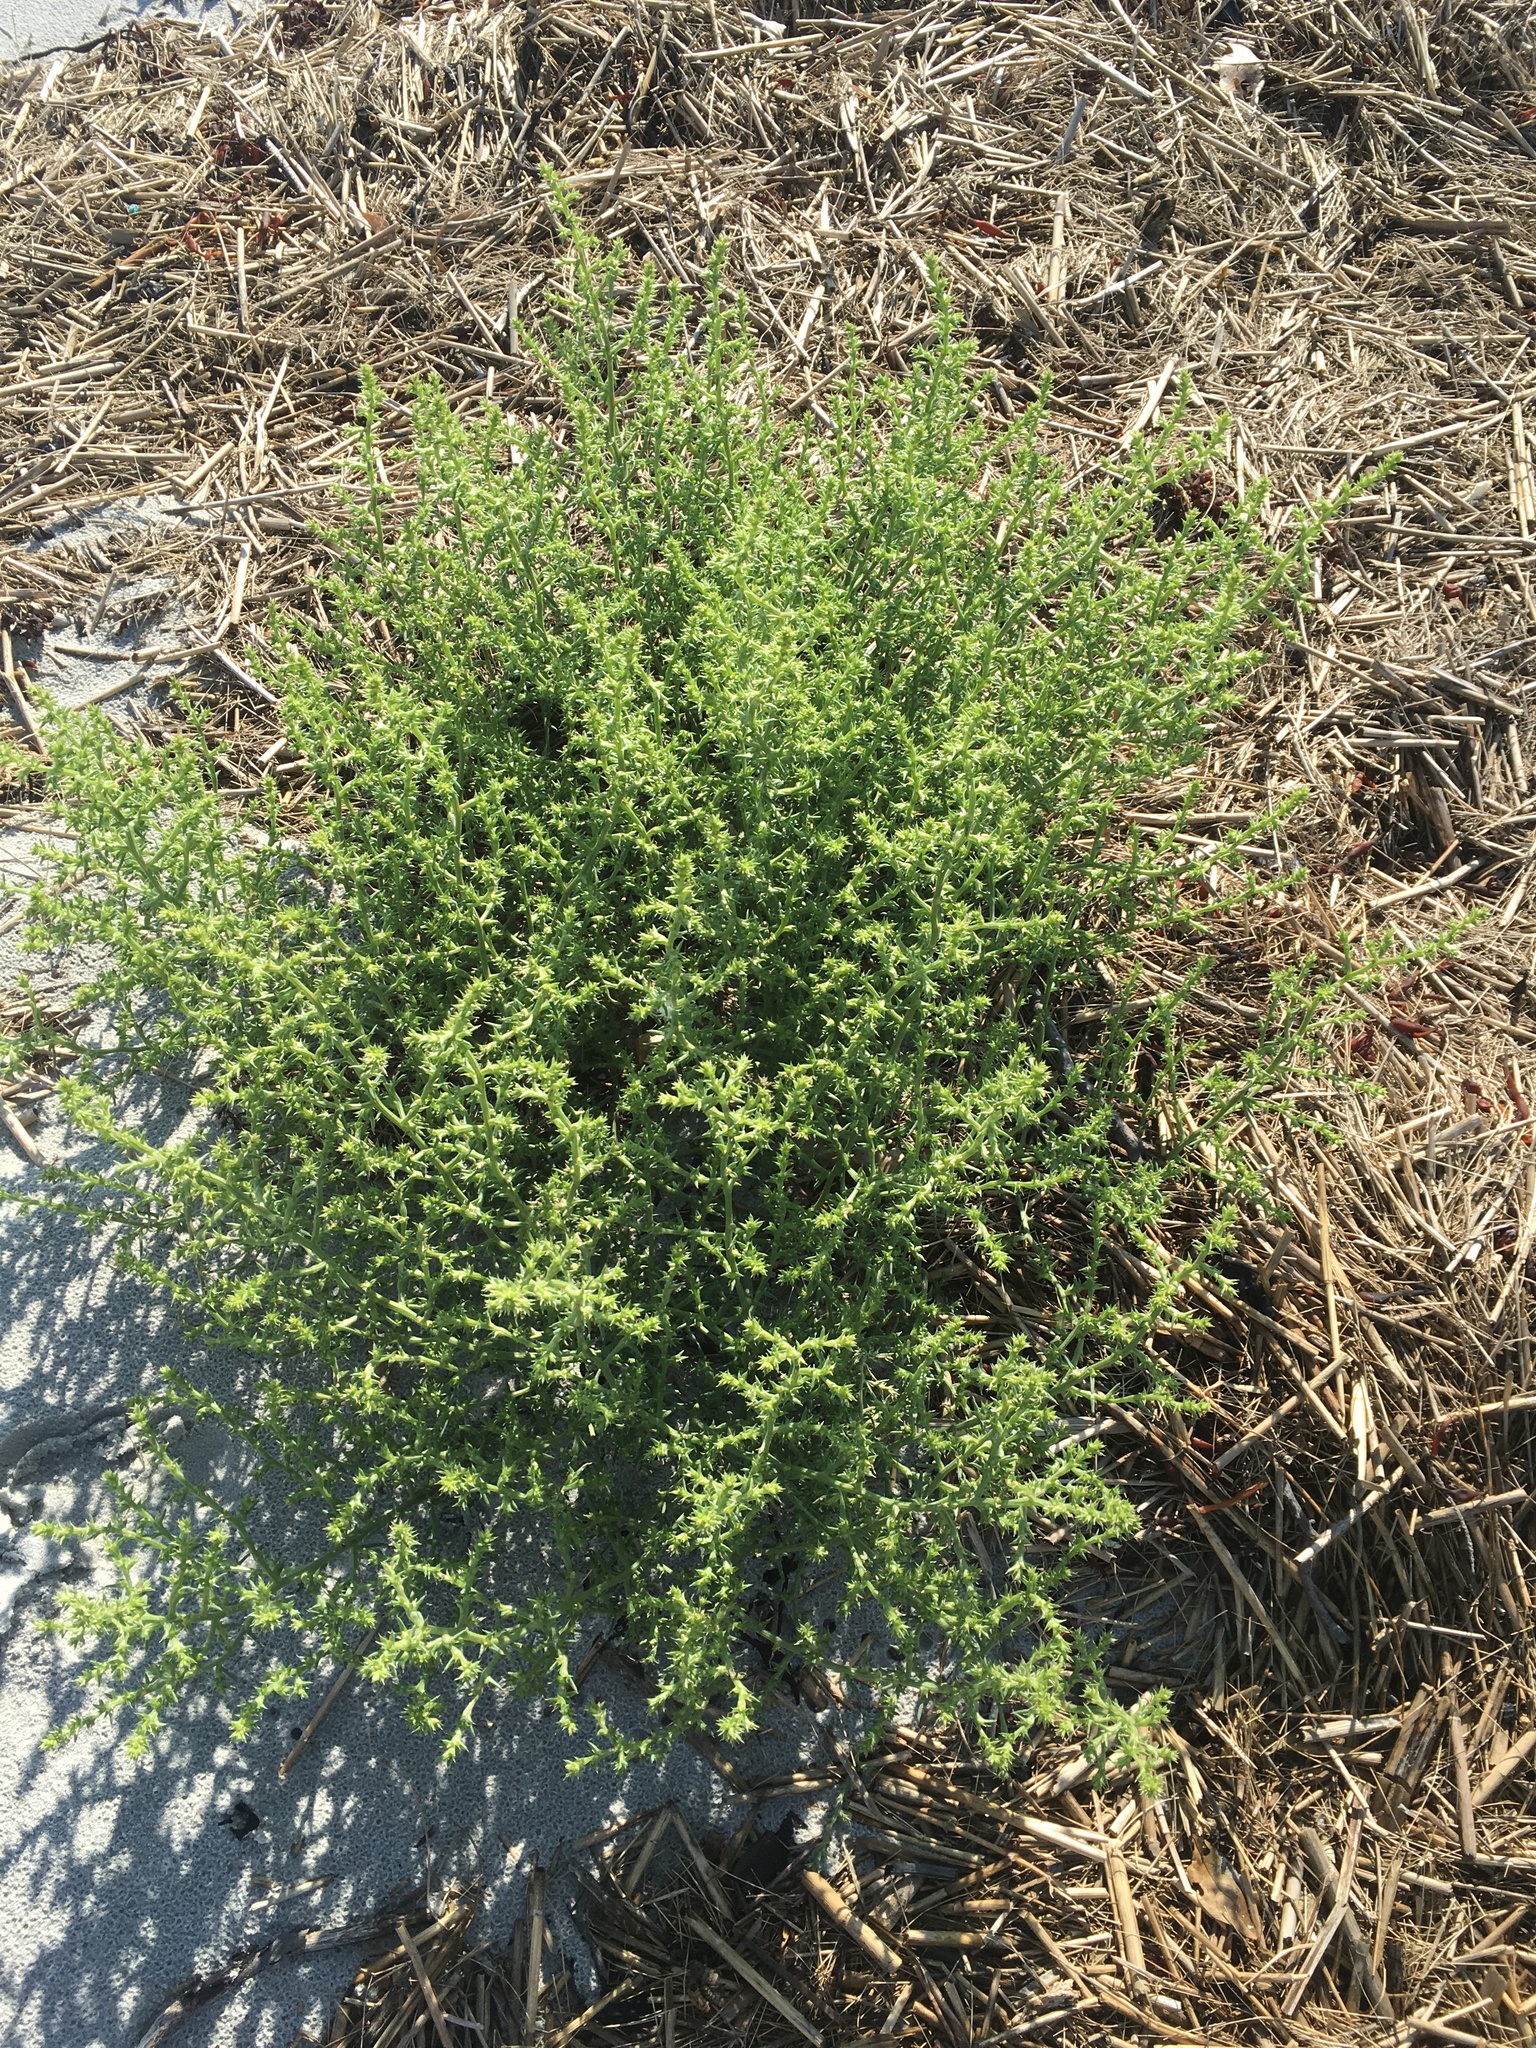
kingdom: Plantae
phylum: Tracheophyta
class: Magnoliopsida
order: Caryophyllales
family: Amaranthaceae
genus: Salsola
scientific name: Salsola kali
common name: Saltwort
